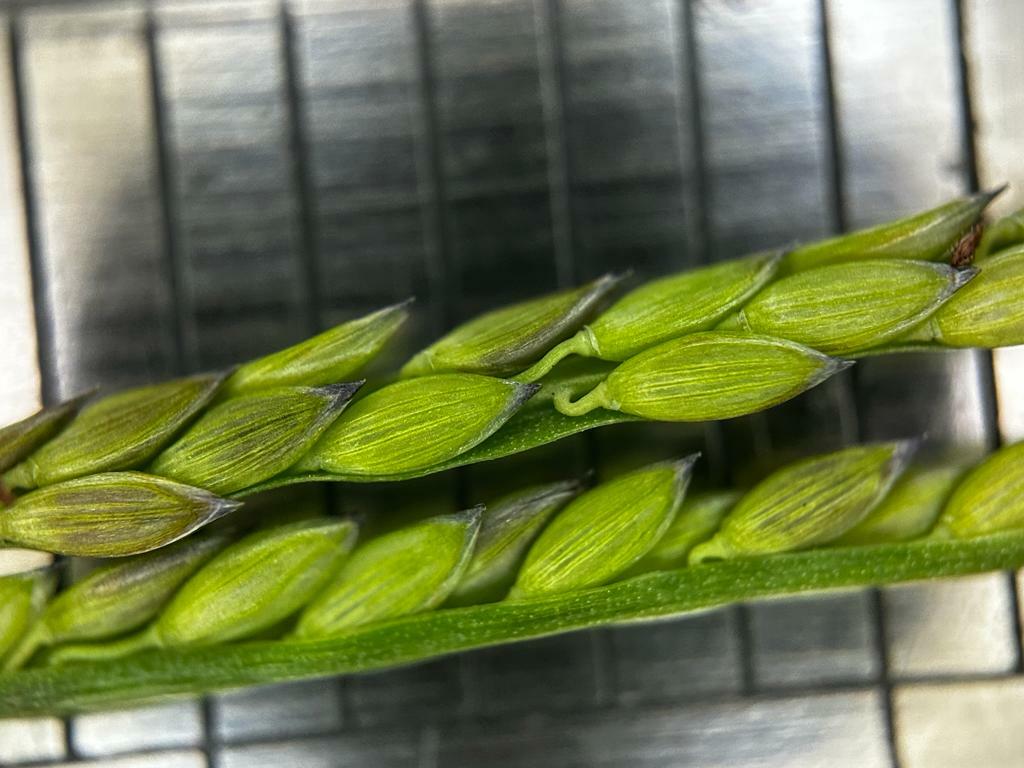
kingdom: Plantae
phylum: Tracheophyta
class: Liliopsida
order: Poales
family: Poaceae
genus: Digitaria
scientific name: Digitaria fuscescens
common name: Yellow crabgrass
